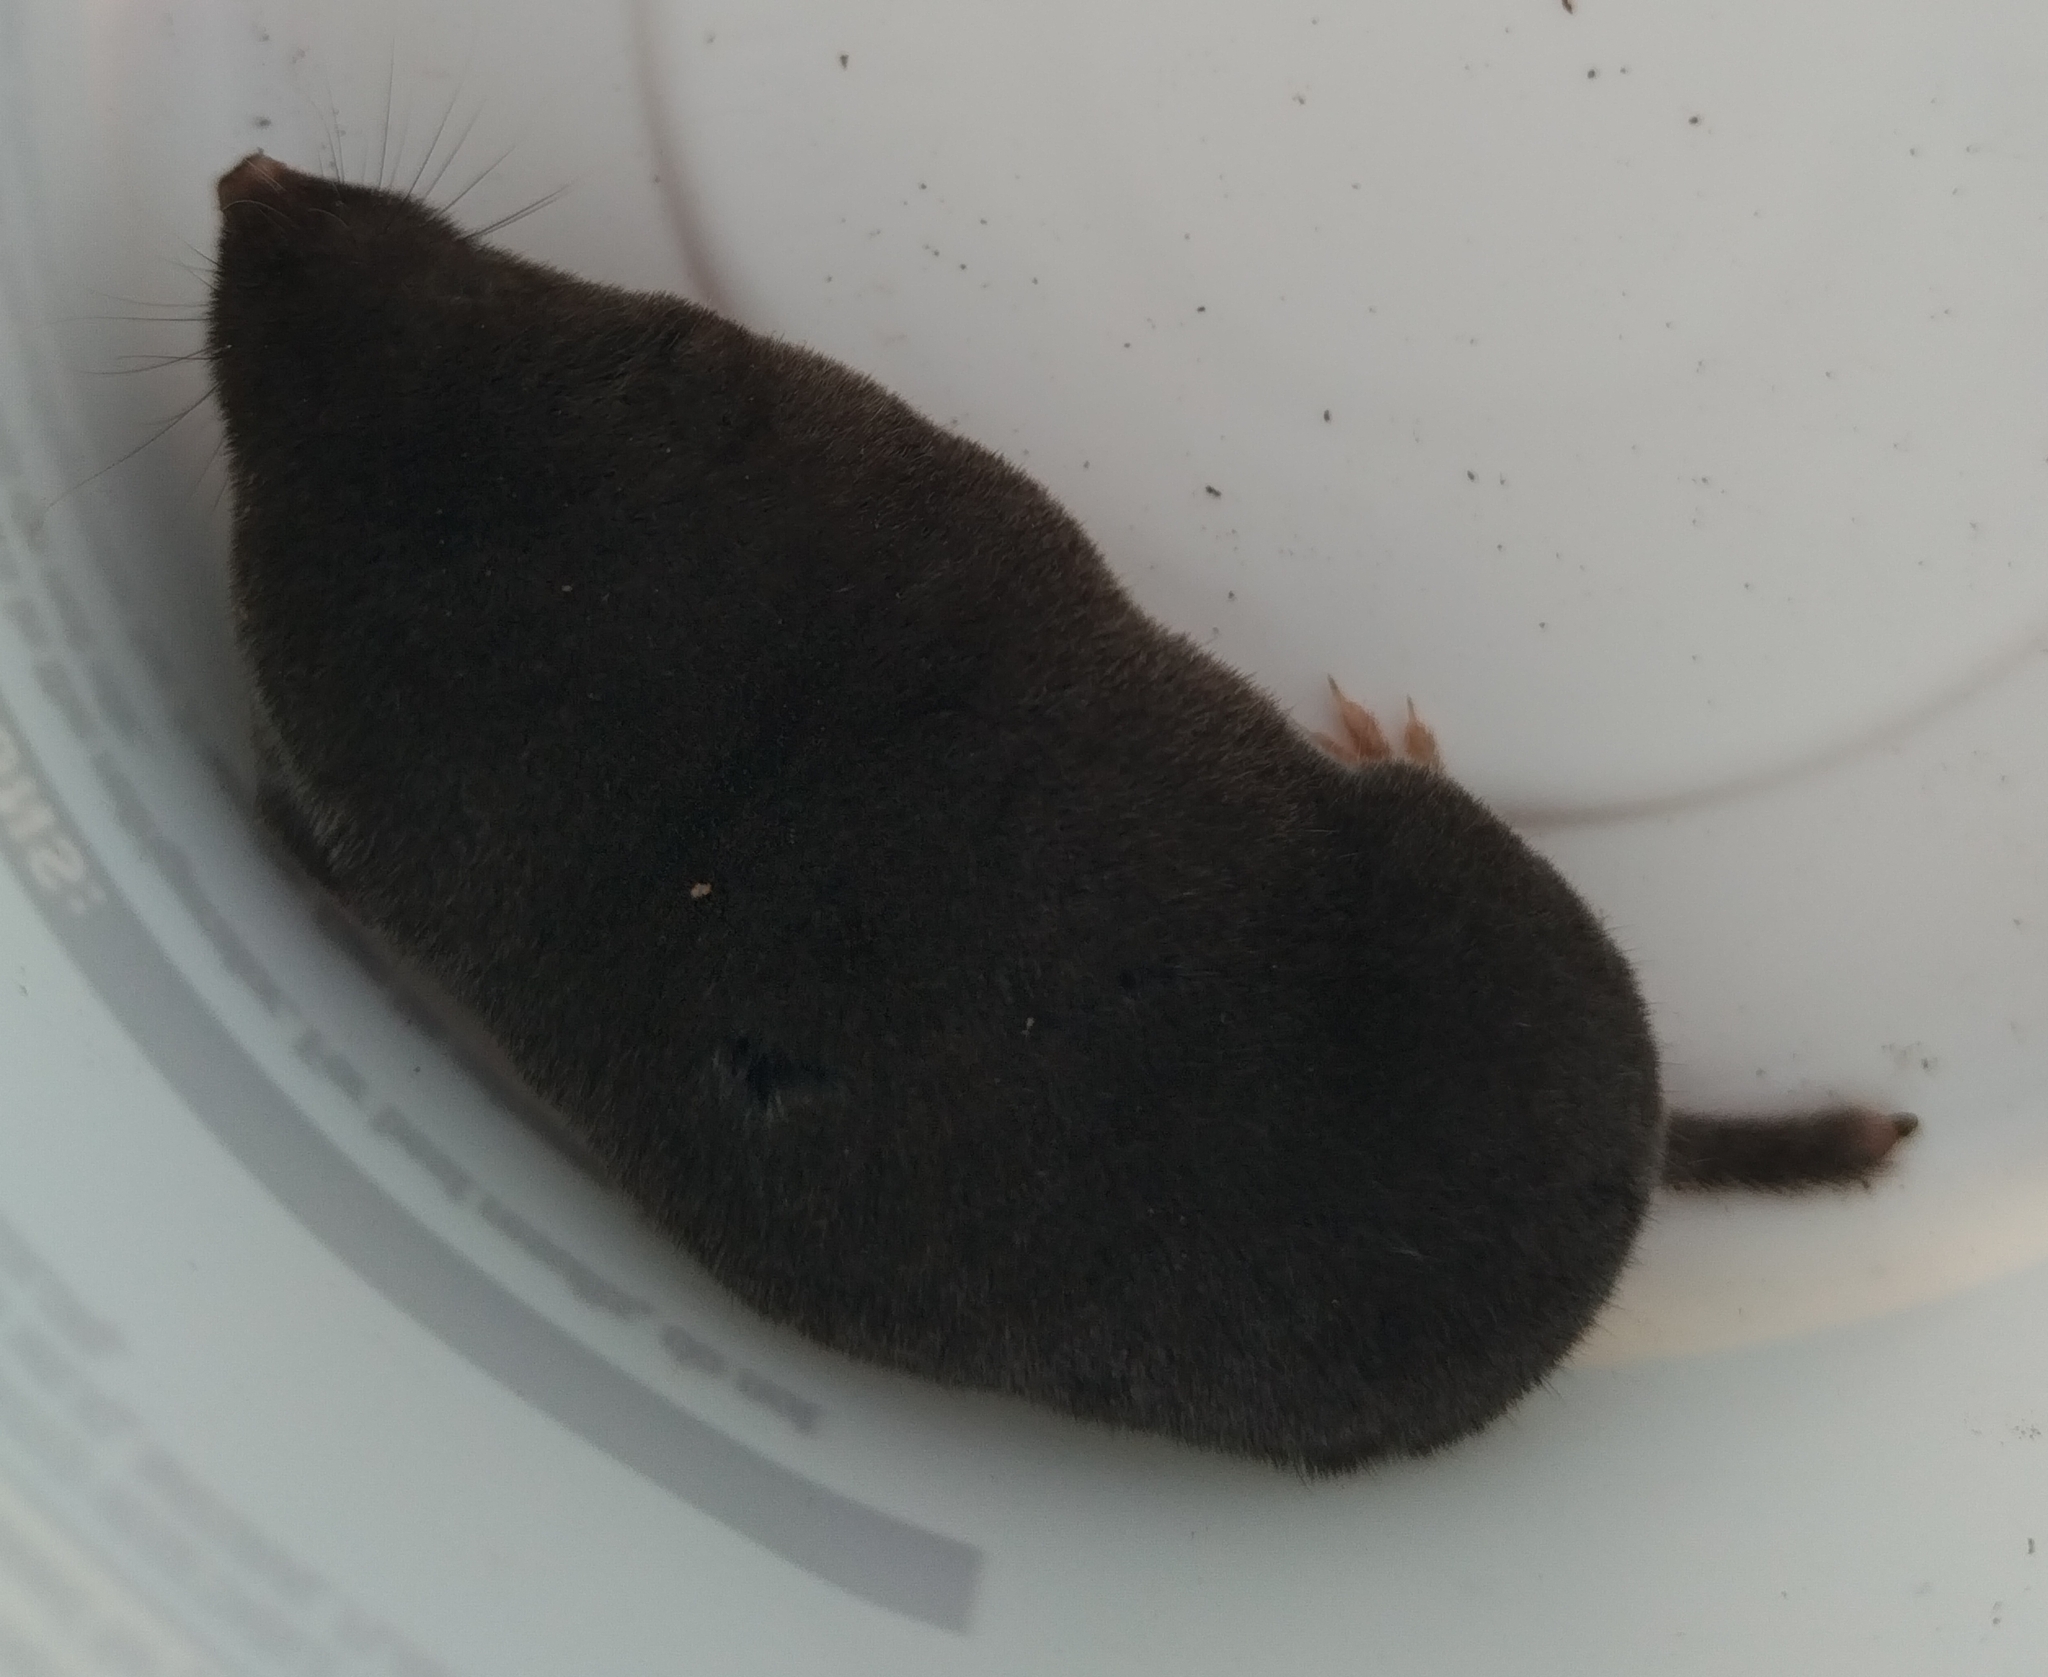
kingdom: Animalia
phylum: Chordata
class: Mammalia
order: Soricomorpha
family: Soricidae
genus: Blarina
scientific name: Blarina brevicauda
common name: Northern short-tailed shrew
